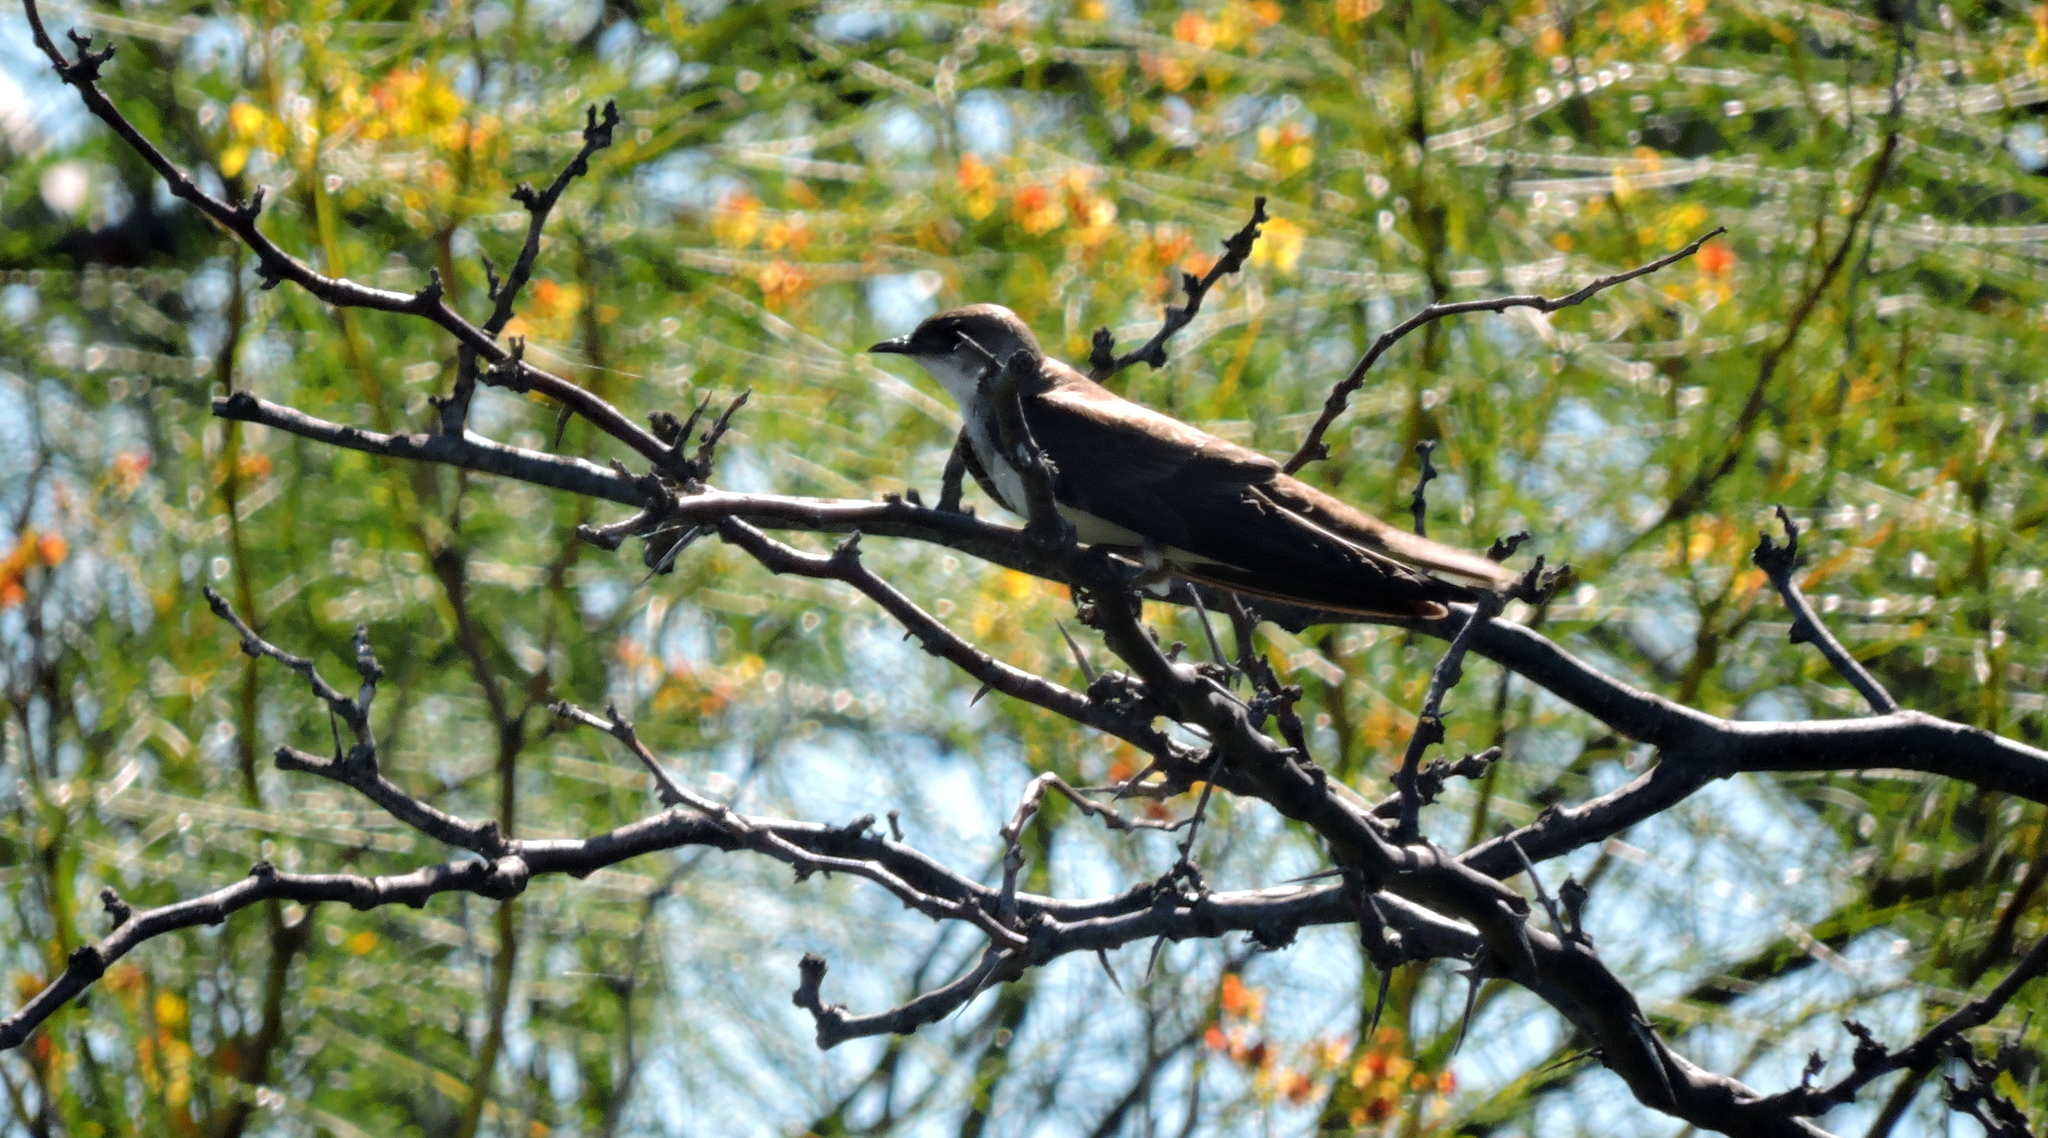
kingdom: Animalia
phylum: Chordata
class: Aves
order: Passeriformes
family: Hirundinidae
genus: Progne
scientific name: Progne tapera
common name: Brown-chested martin
